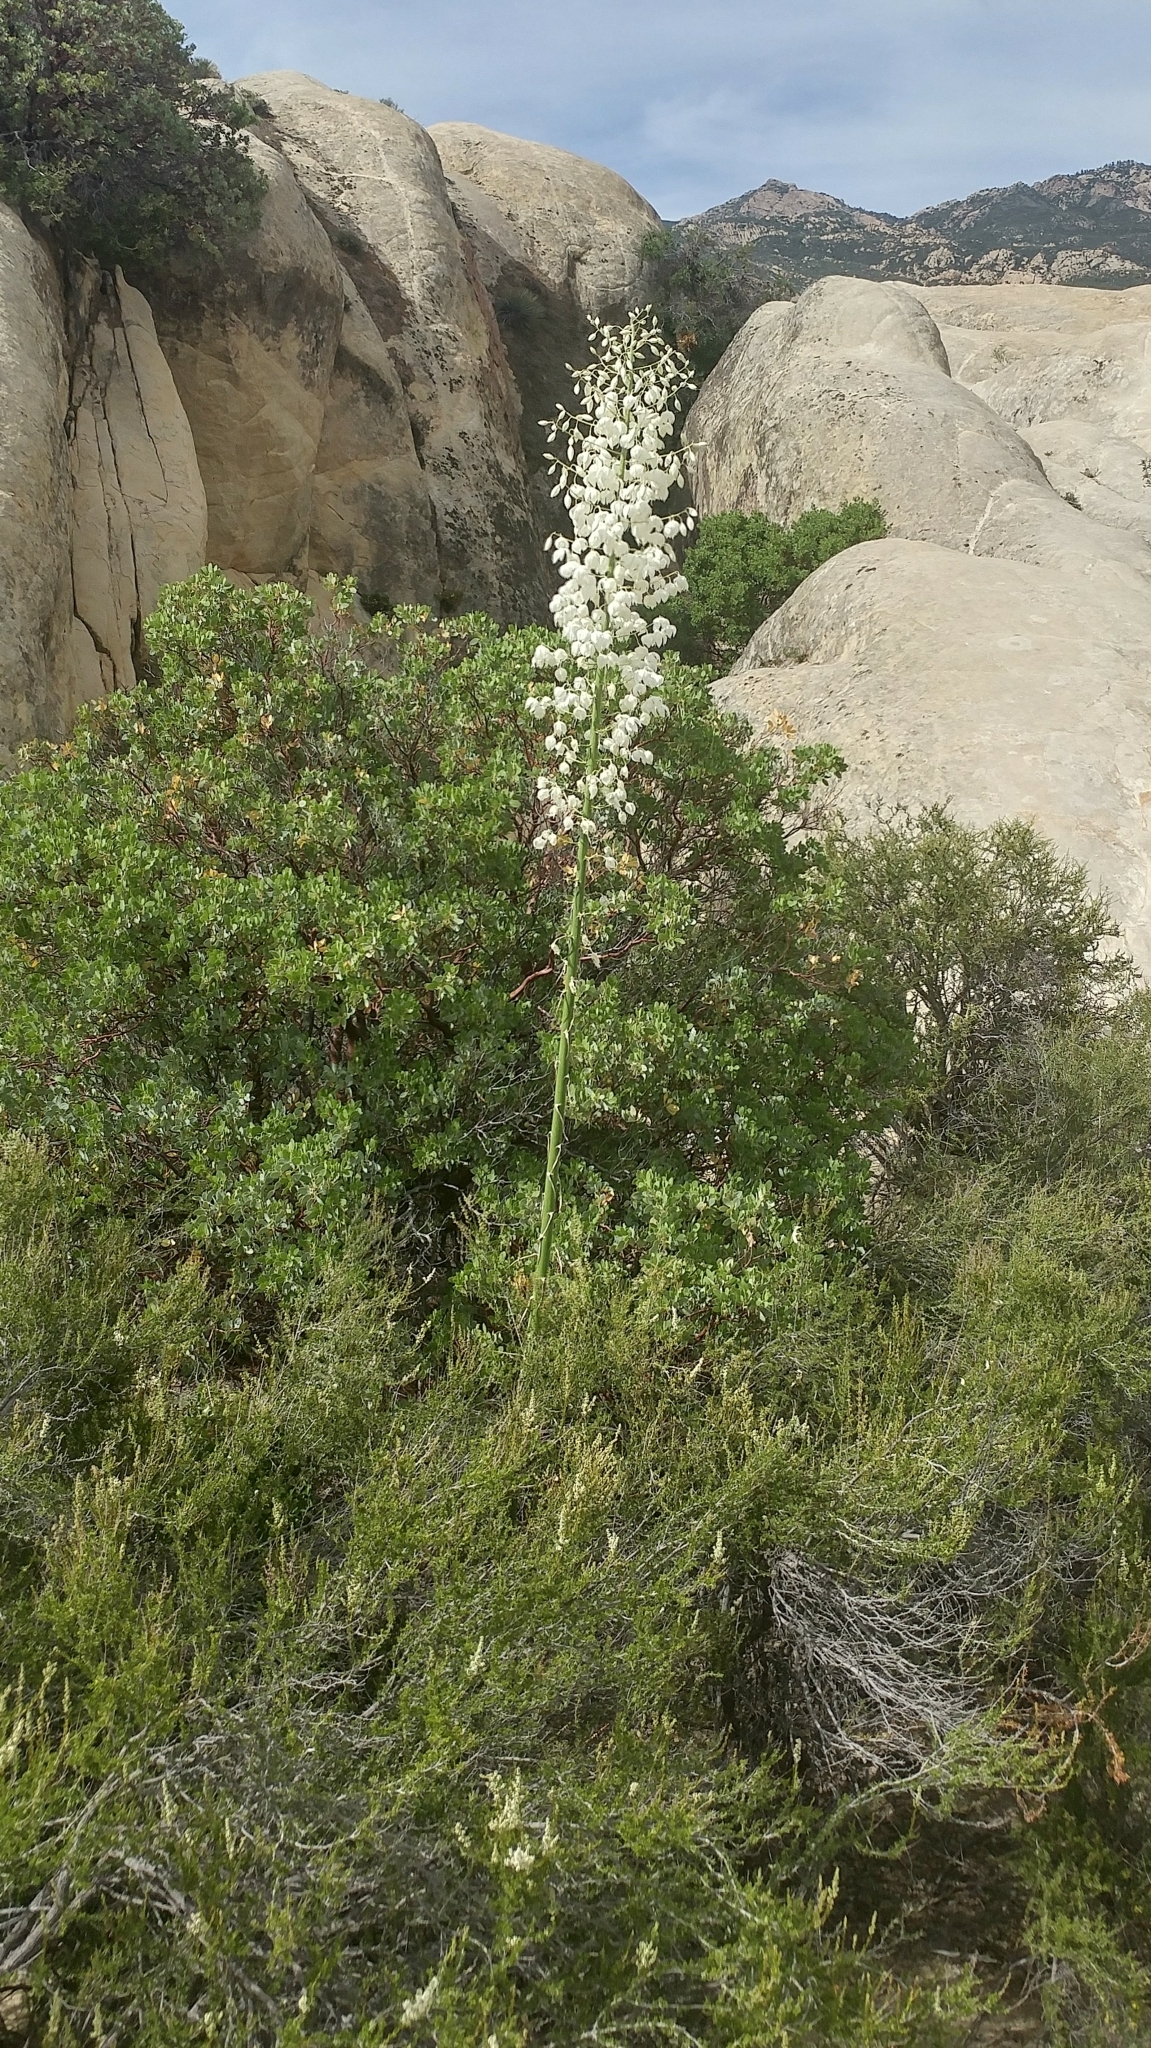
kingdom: Plantae
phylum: Tracheophyta
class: Liliopsida
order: Asparagales
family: Asparagaceae
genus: Hesperoyucca
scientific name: Hesperoyucca whipplei
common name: Our lord's-candle
